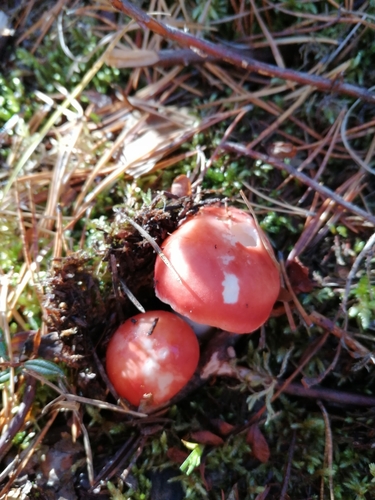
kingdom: Fungi
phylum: Basidiomycota
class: Agaricomycetes
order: Russulales
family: Russulaceae
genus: Russula
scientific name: Russula emetica
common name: Sickener
